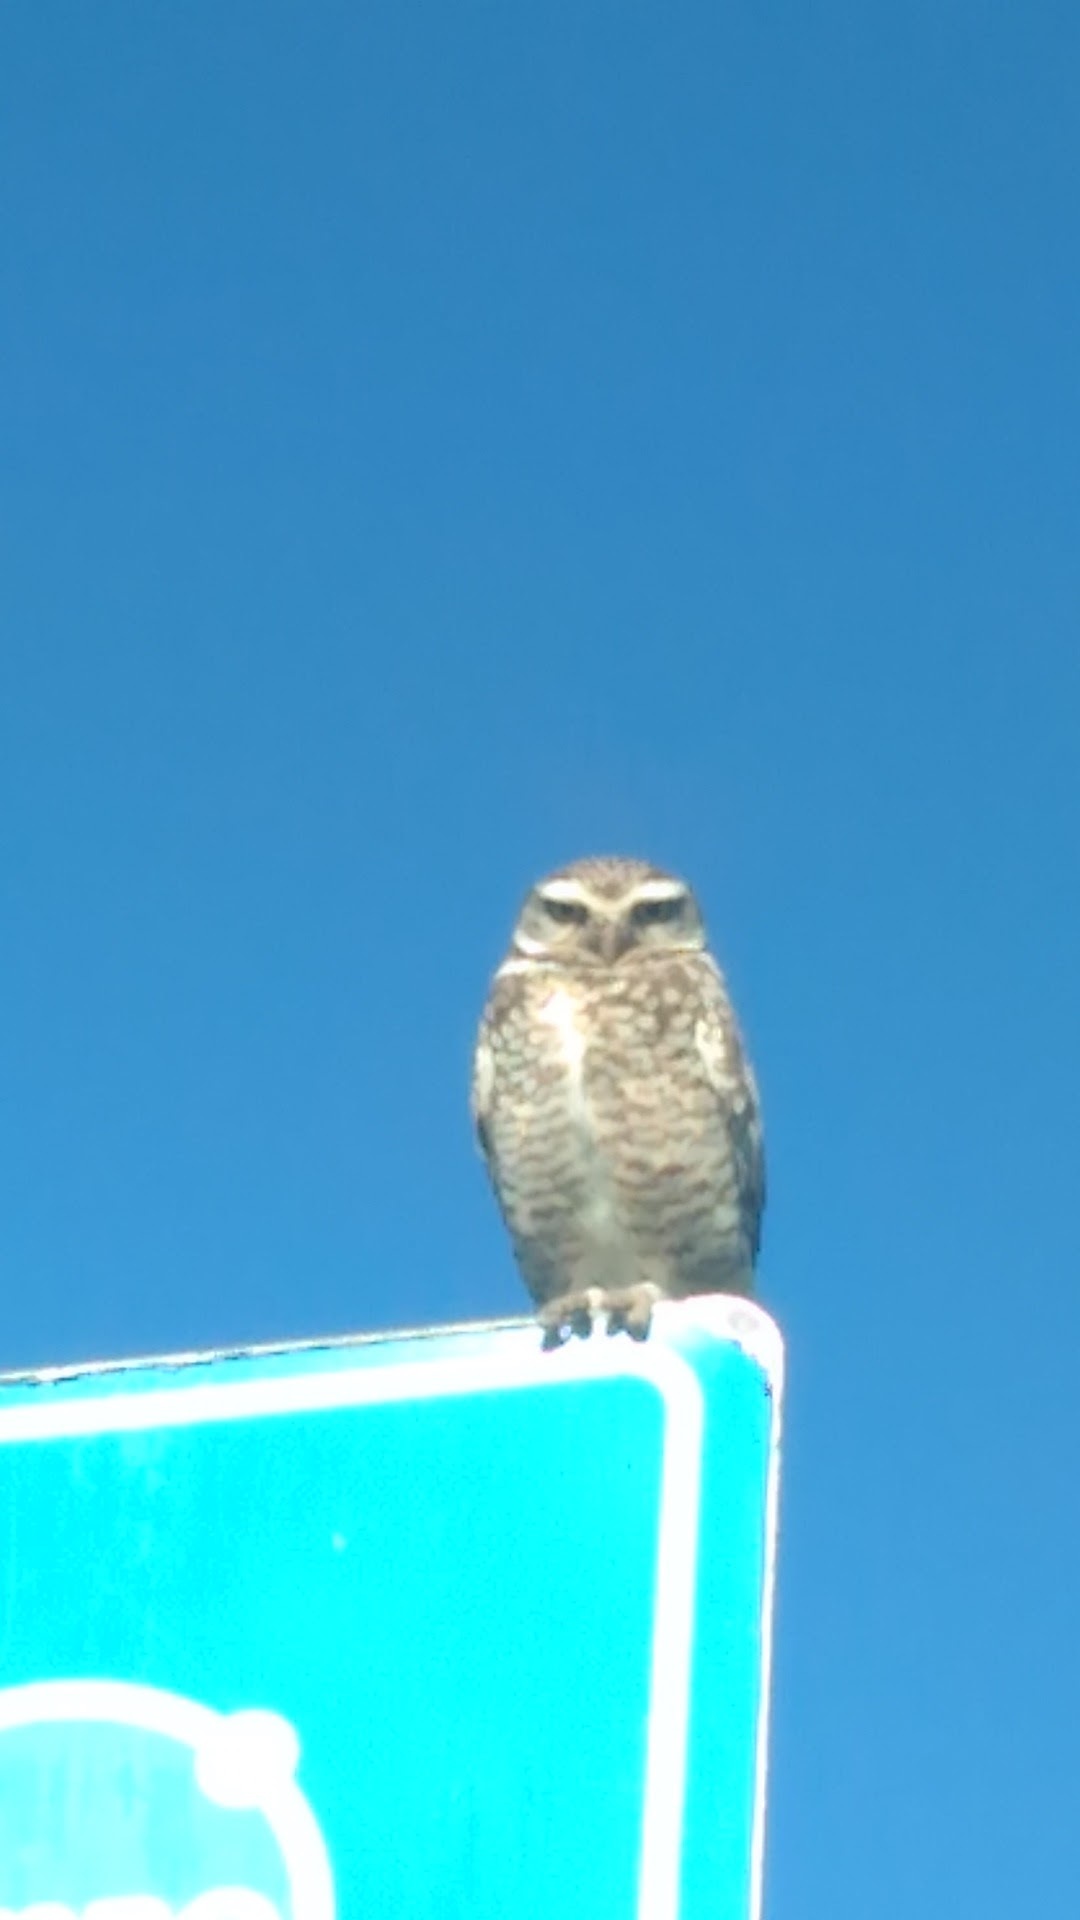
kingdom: Animalia
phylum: Chordata
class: Aves
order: Strigiformes
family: Strigidae
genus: Athene
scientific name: Athene cunicularia
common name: Burrowing owl
